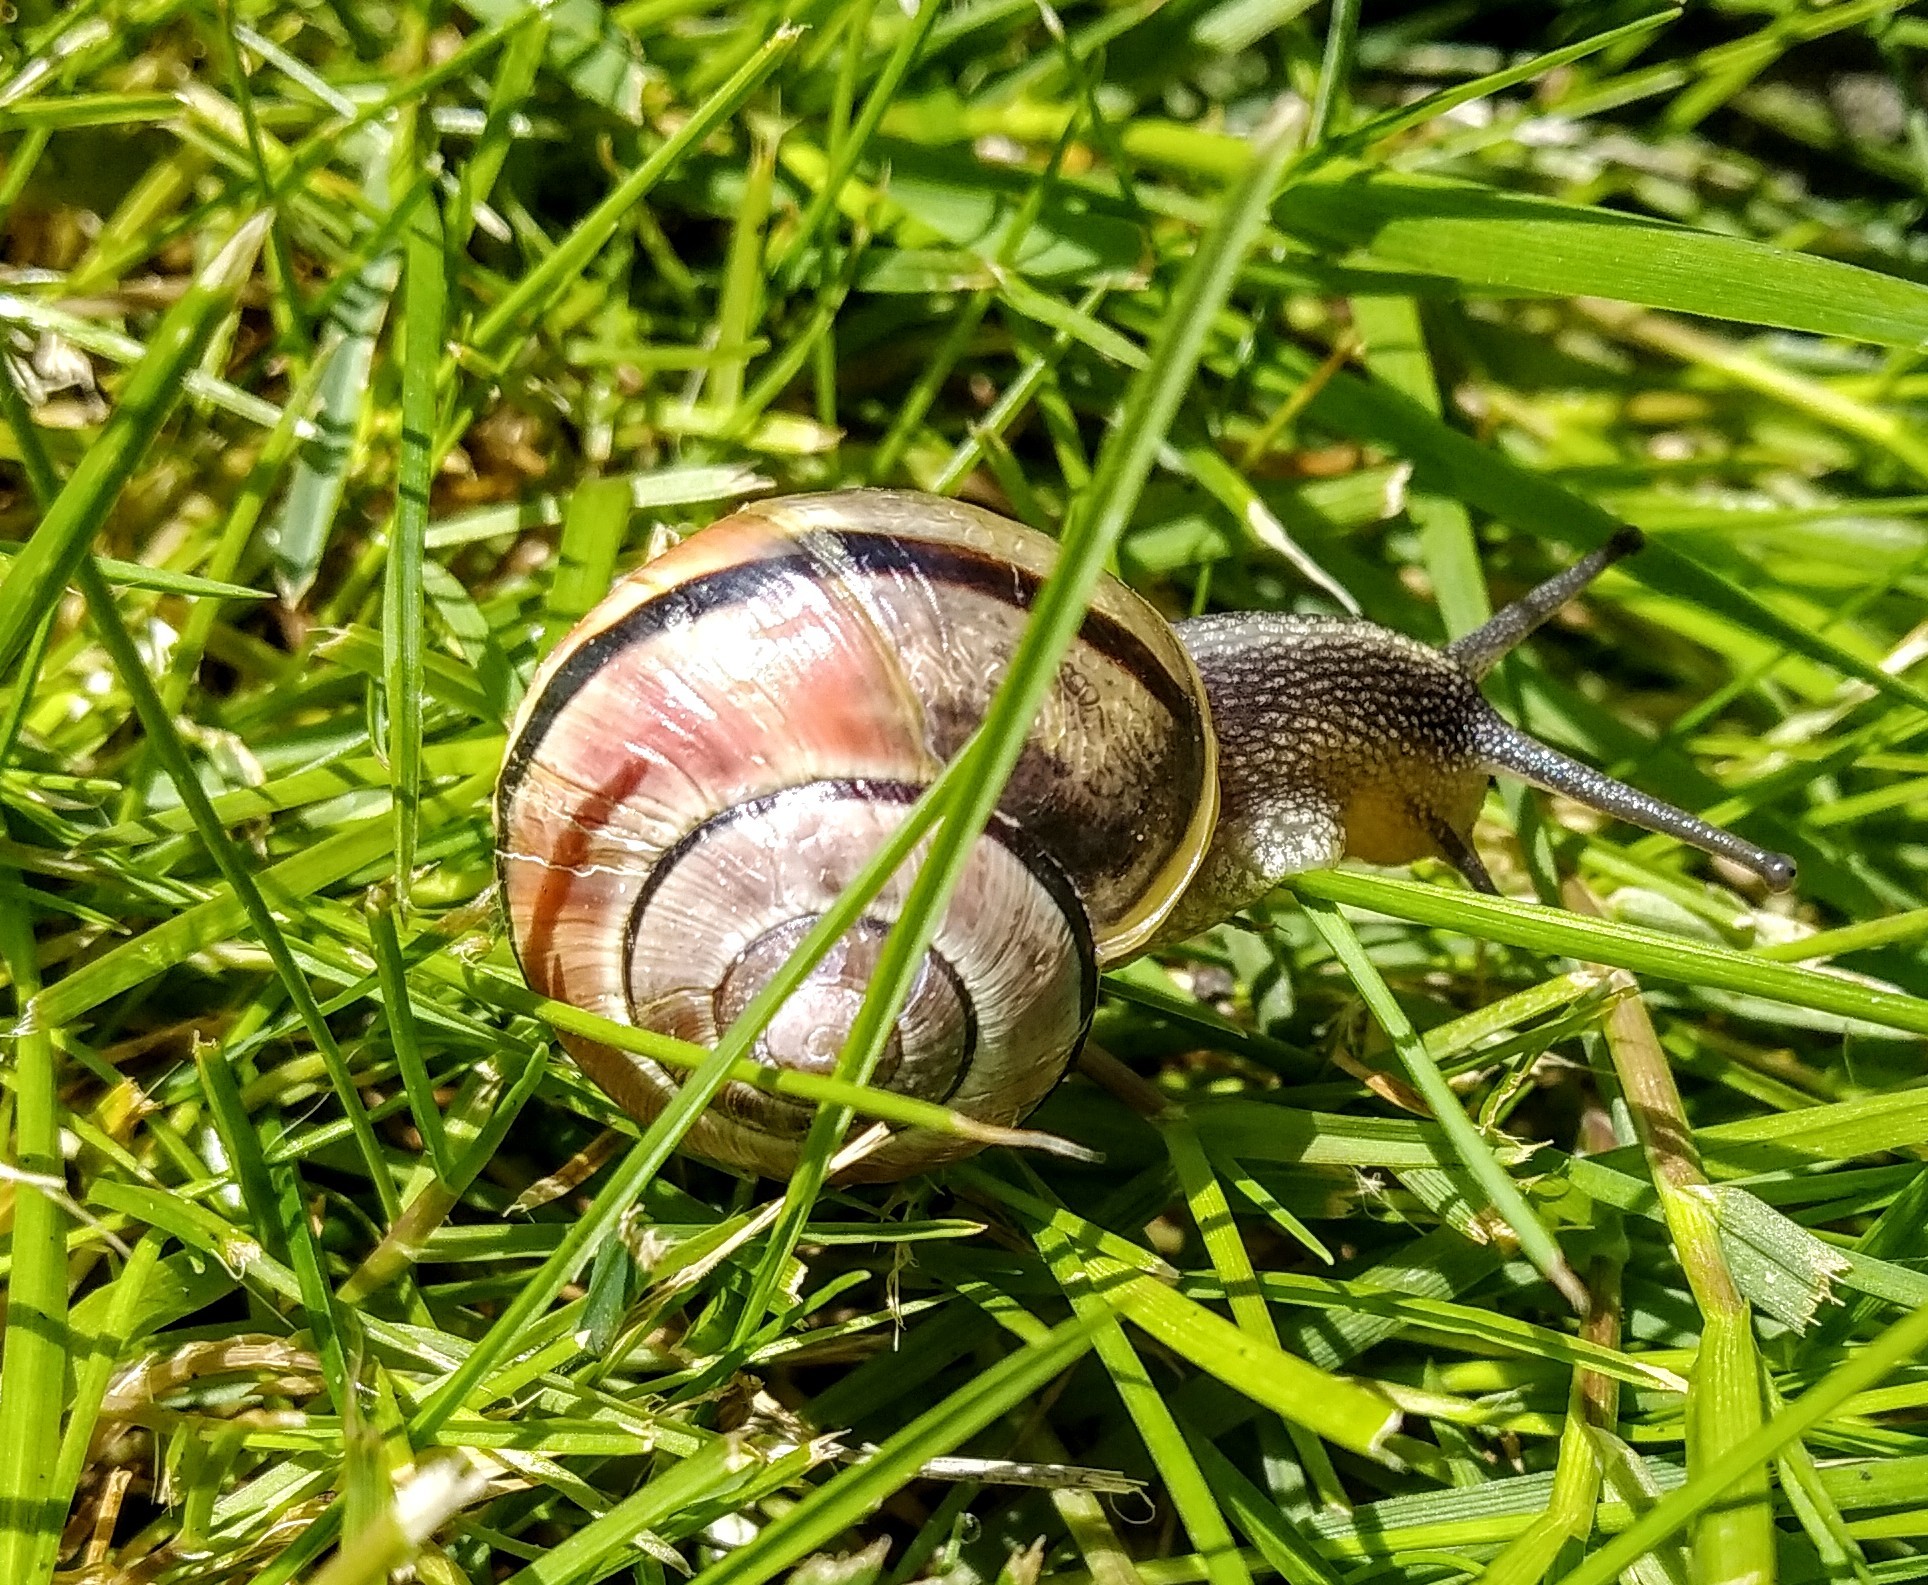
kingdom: Animalia
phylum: Mollusca
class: Gastropoda
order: Stylommatophora
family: Helicidae
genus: Cepaea
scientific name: Cepaea hortensis
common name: White-lip gardensnail
